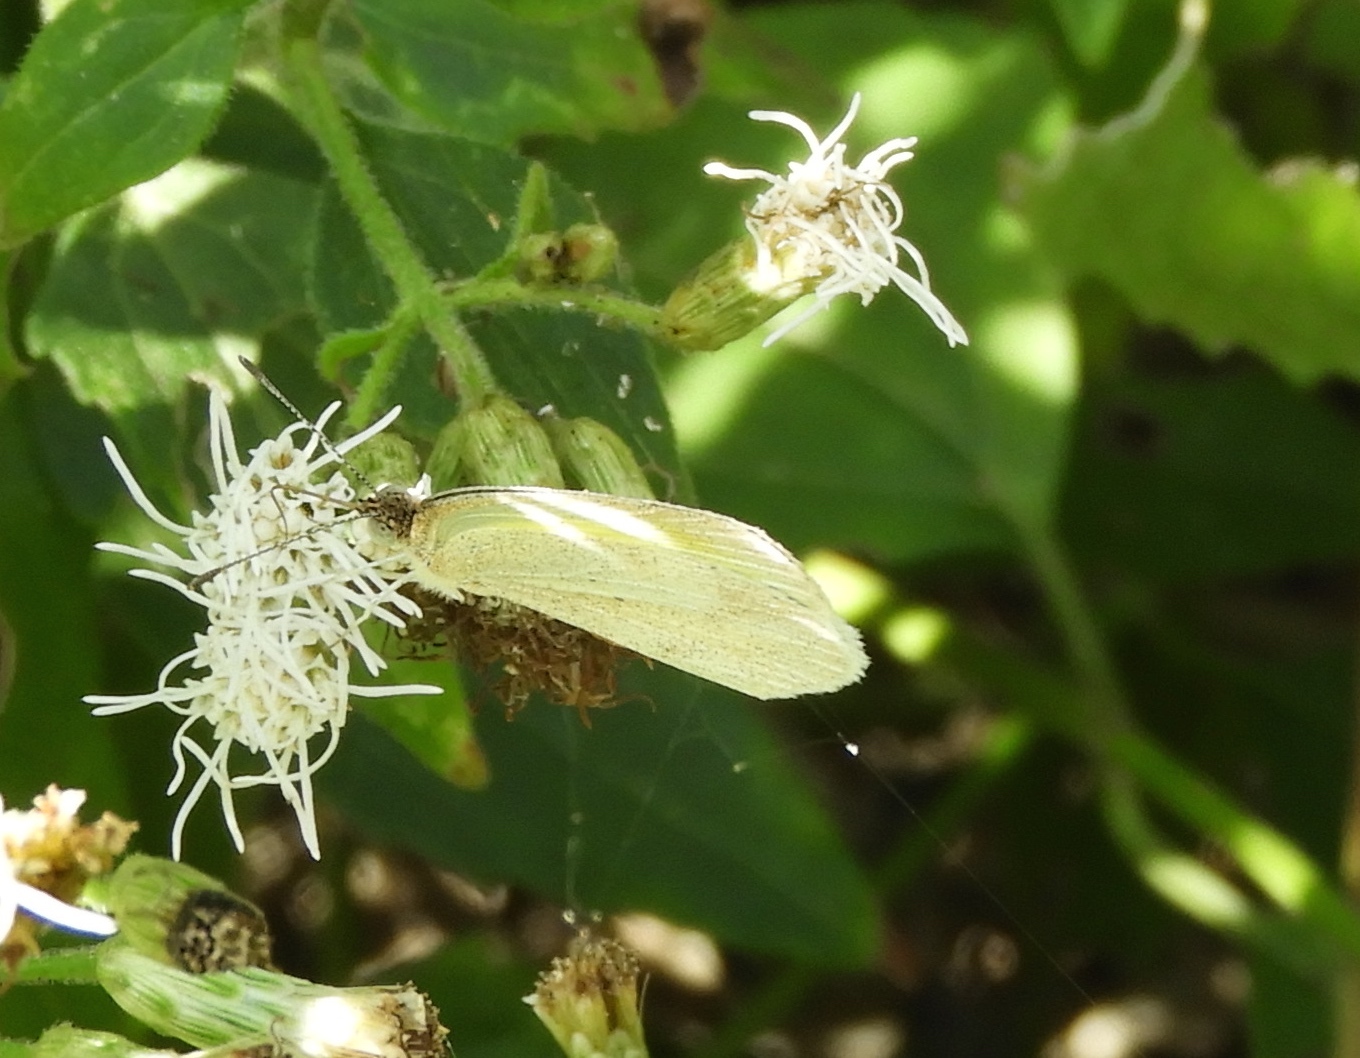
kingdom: Animalia
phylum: Arthropoda
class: Insecta
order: Lepidoptera
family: Pieridae
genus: Eurema
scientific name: Eurema daira
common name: Barred sulphur
